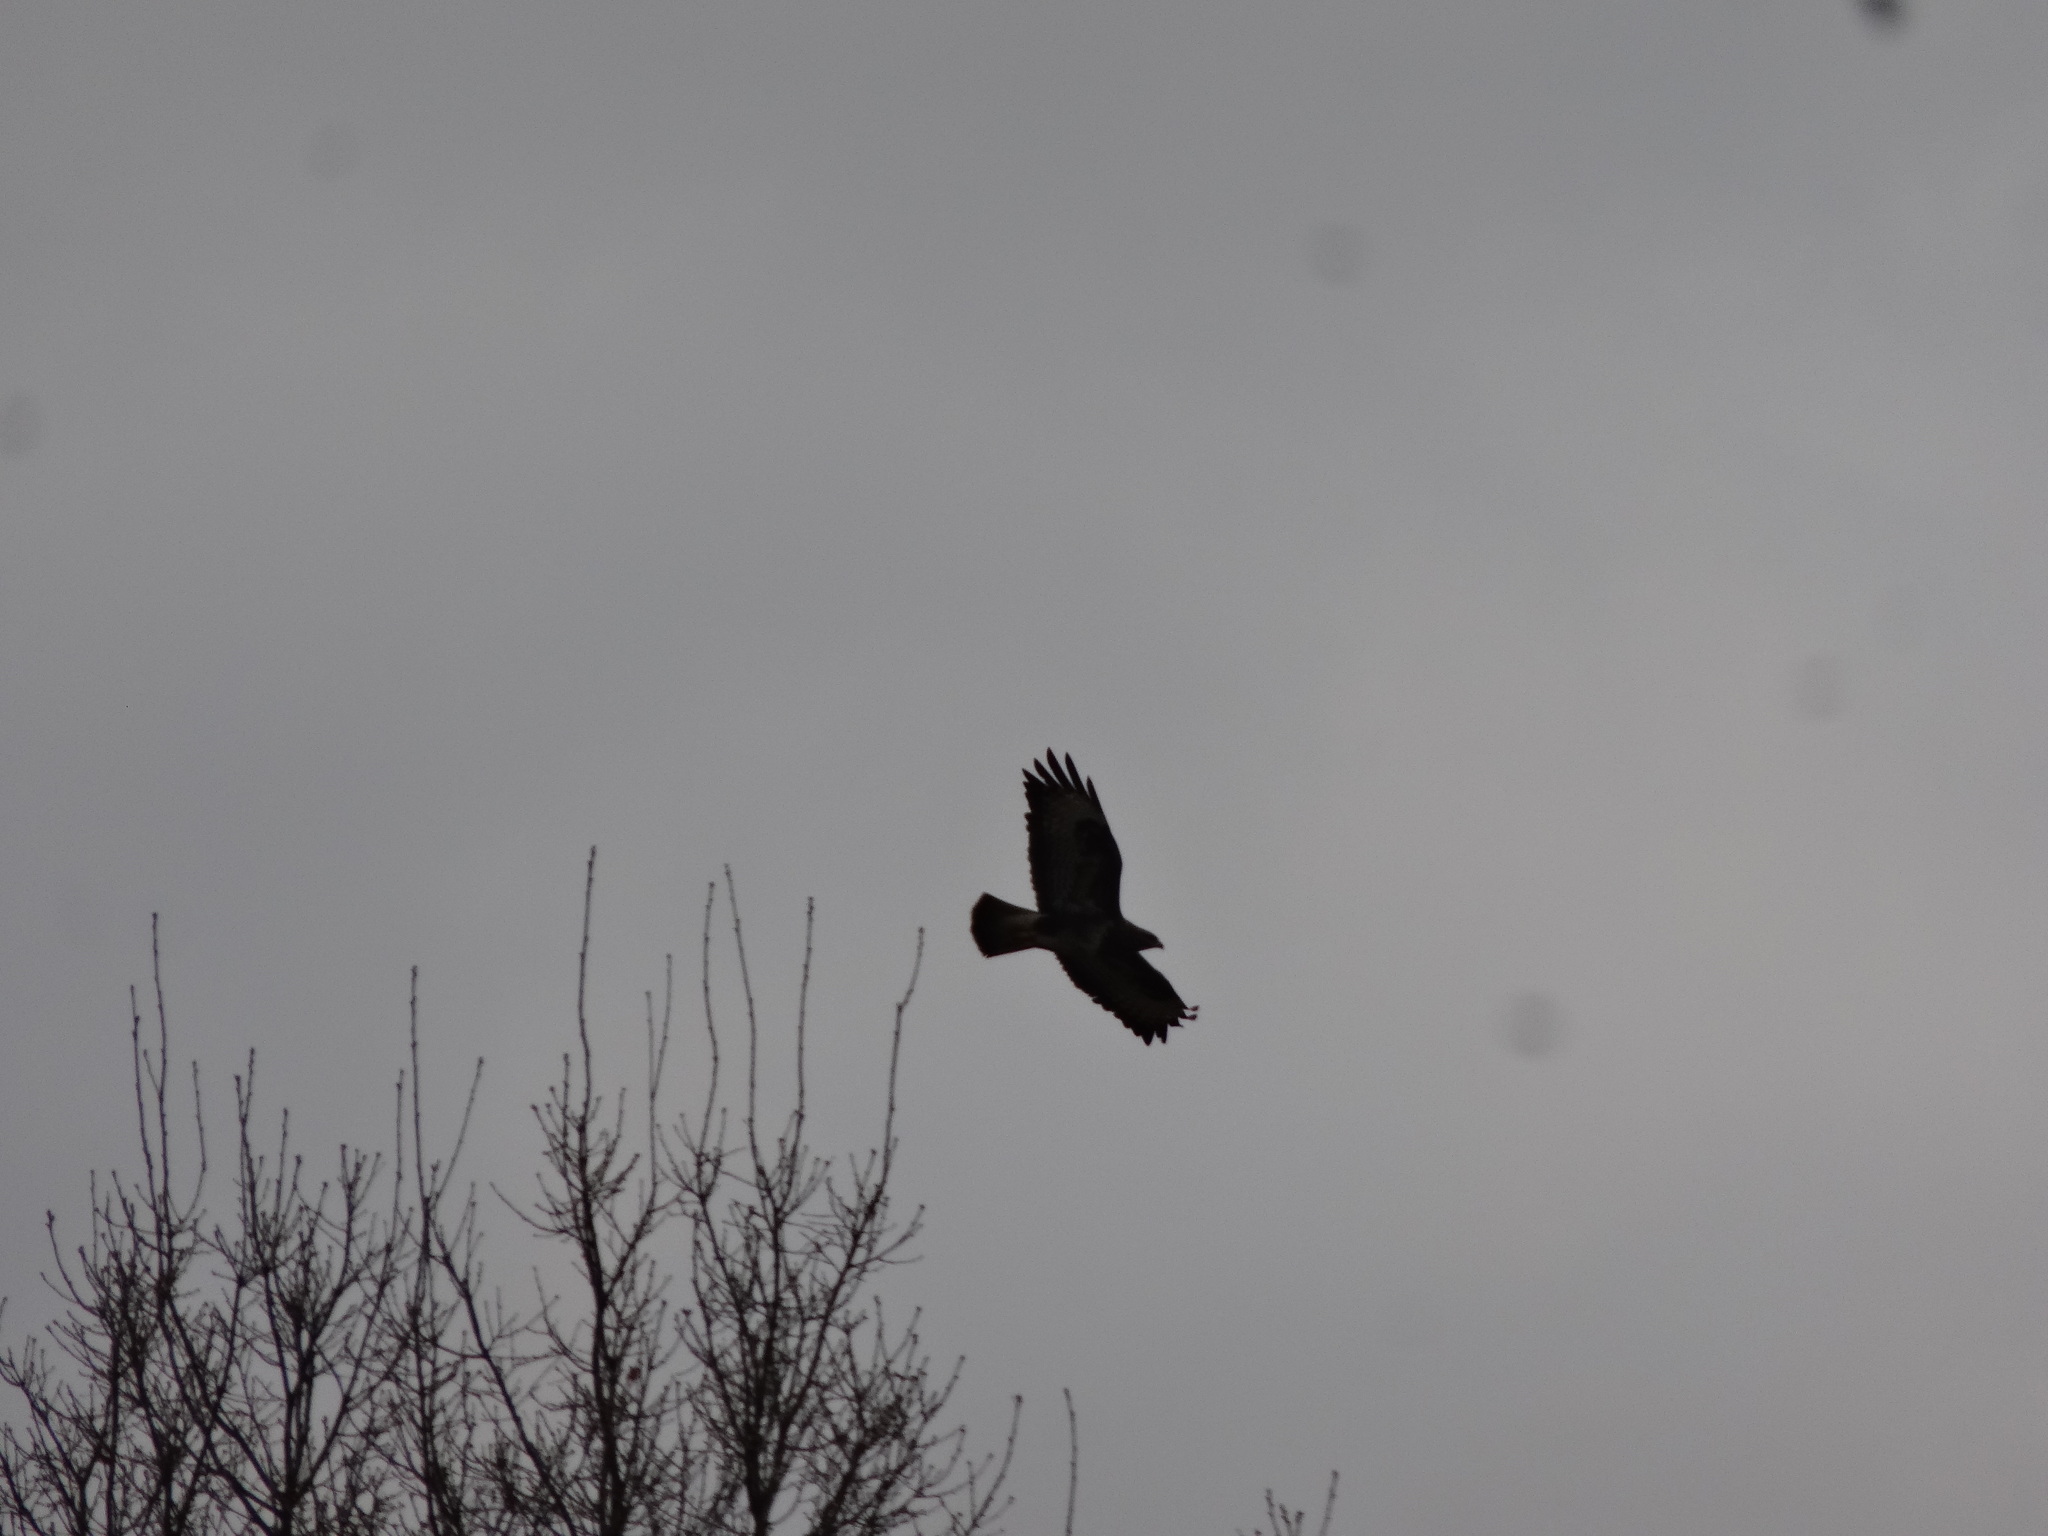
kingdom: Animalia
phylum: Chordata
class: Aves
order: Accipitriformes
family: Accipitridae
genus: Buteo
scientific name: Buteo buteo
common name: Common buzzard
